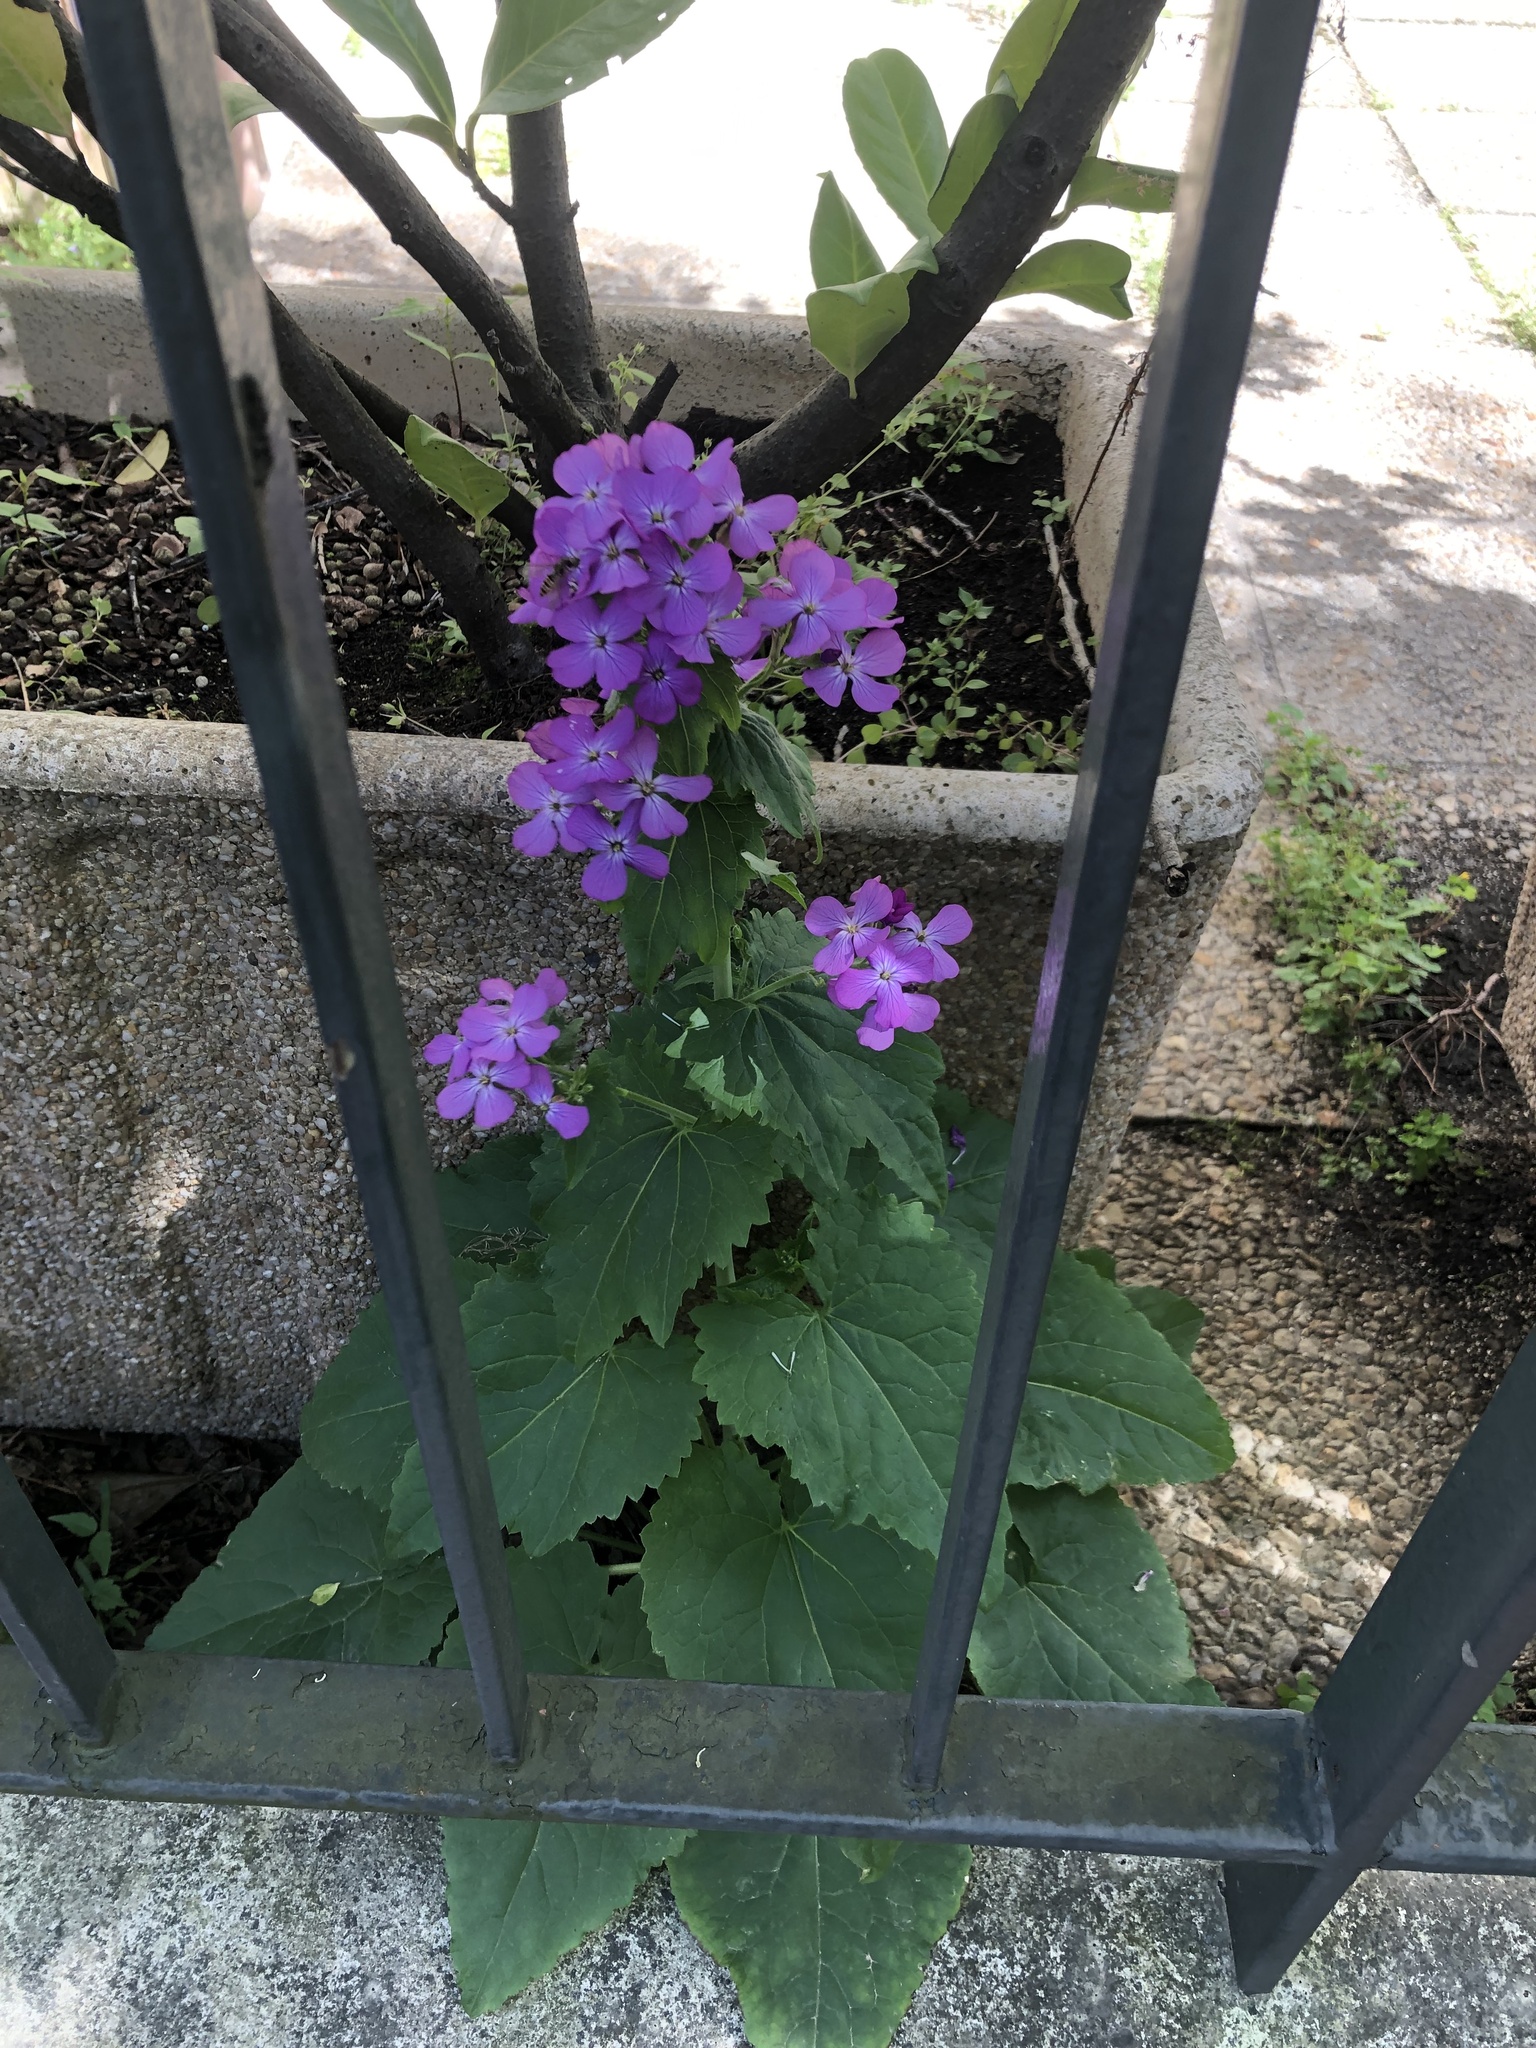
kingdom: Plantae
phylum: Tracheophyta
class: Magnoliopsida
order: Brassicales
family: Brassicaceae
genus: Lunaria
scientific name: Lunaria annua
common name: Honesty
